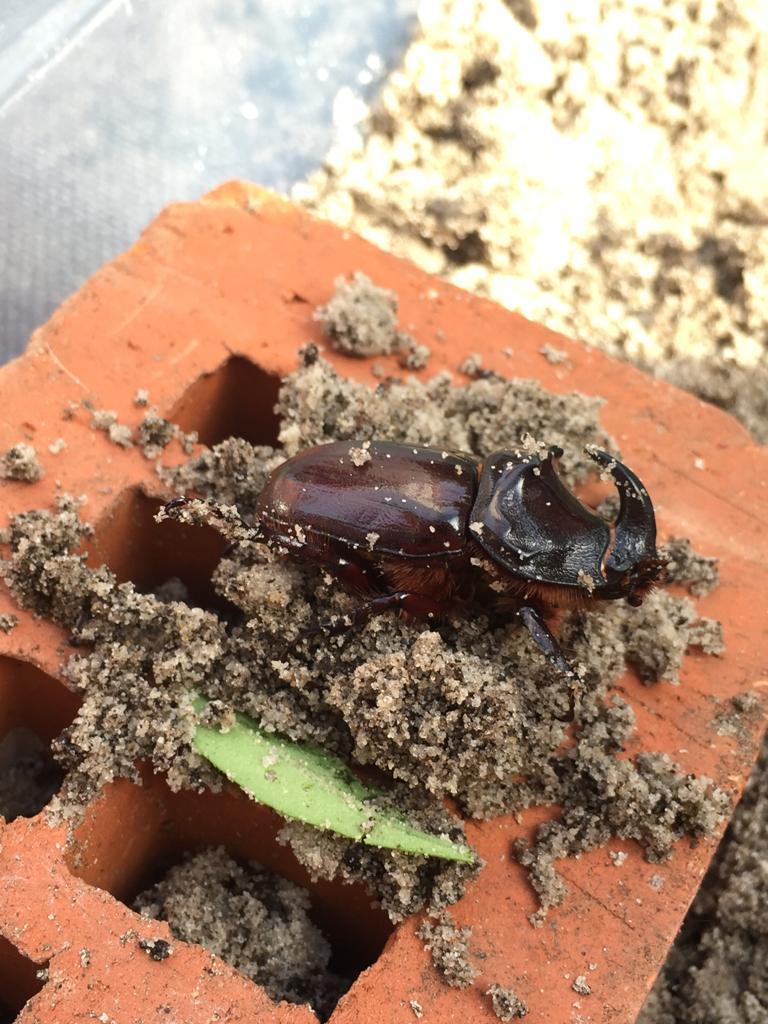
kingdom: Animalia
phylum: Arthropoda
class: Insecta
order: Coleoptera
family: Scarabaeidae
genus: Oryctes
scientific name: Oryctes nasicornis
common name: European rhinoceros beetle
